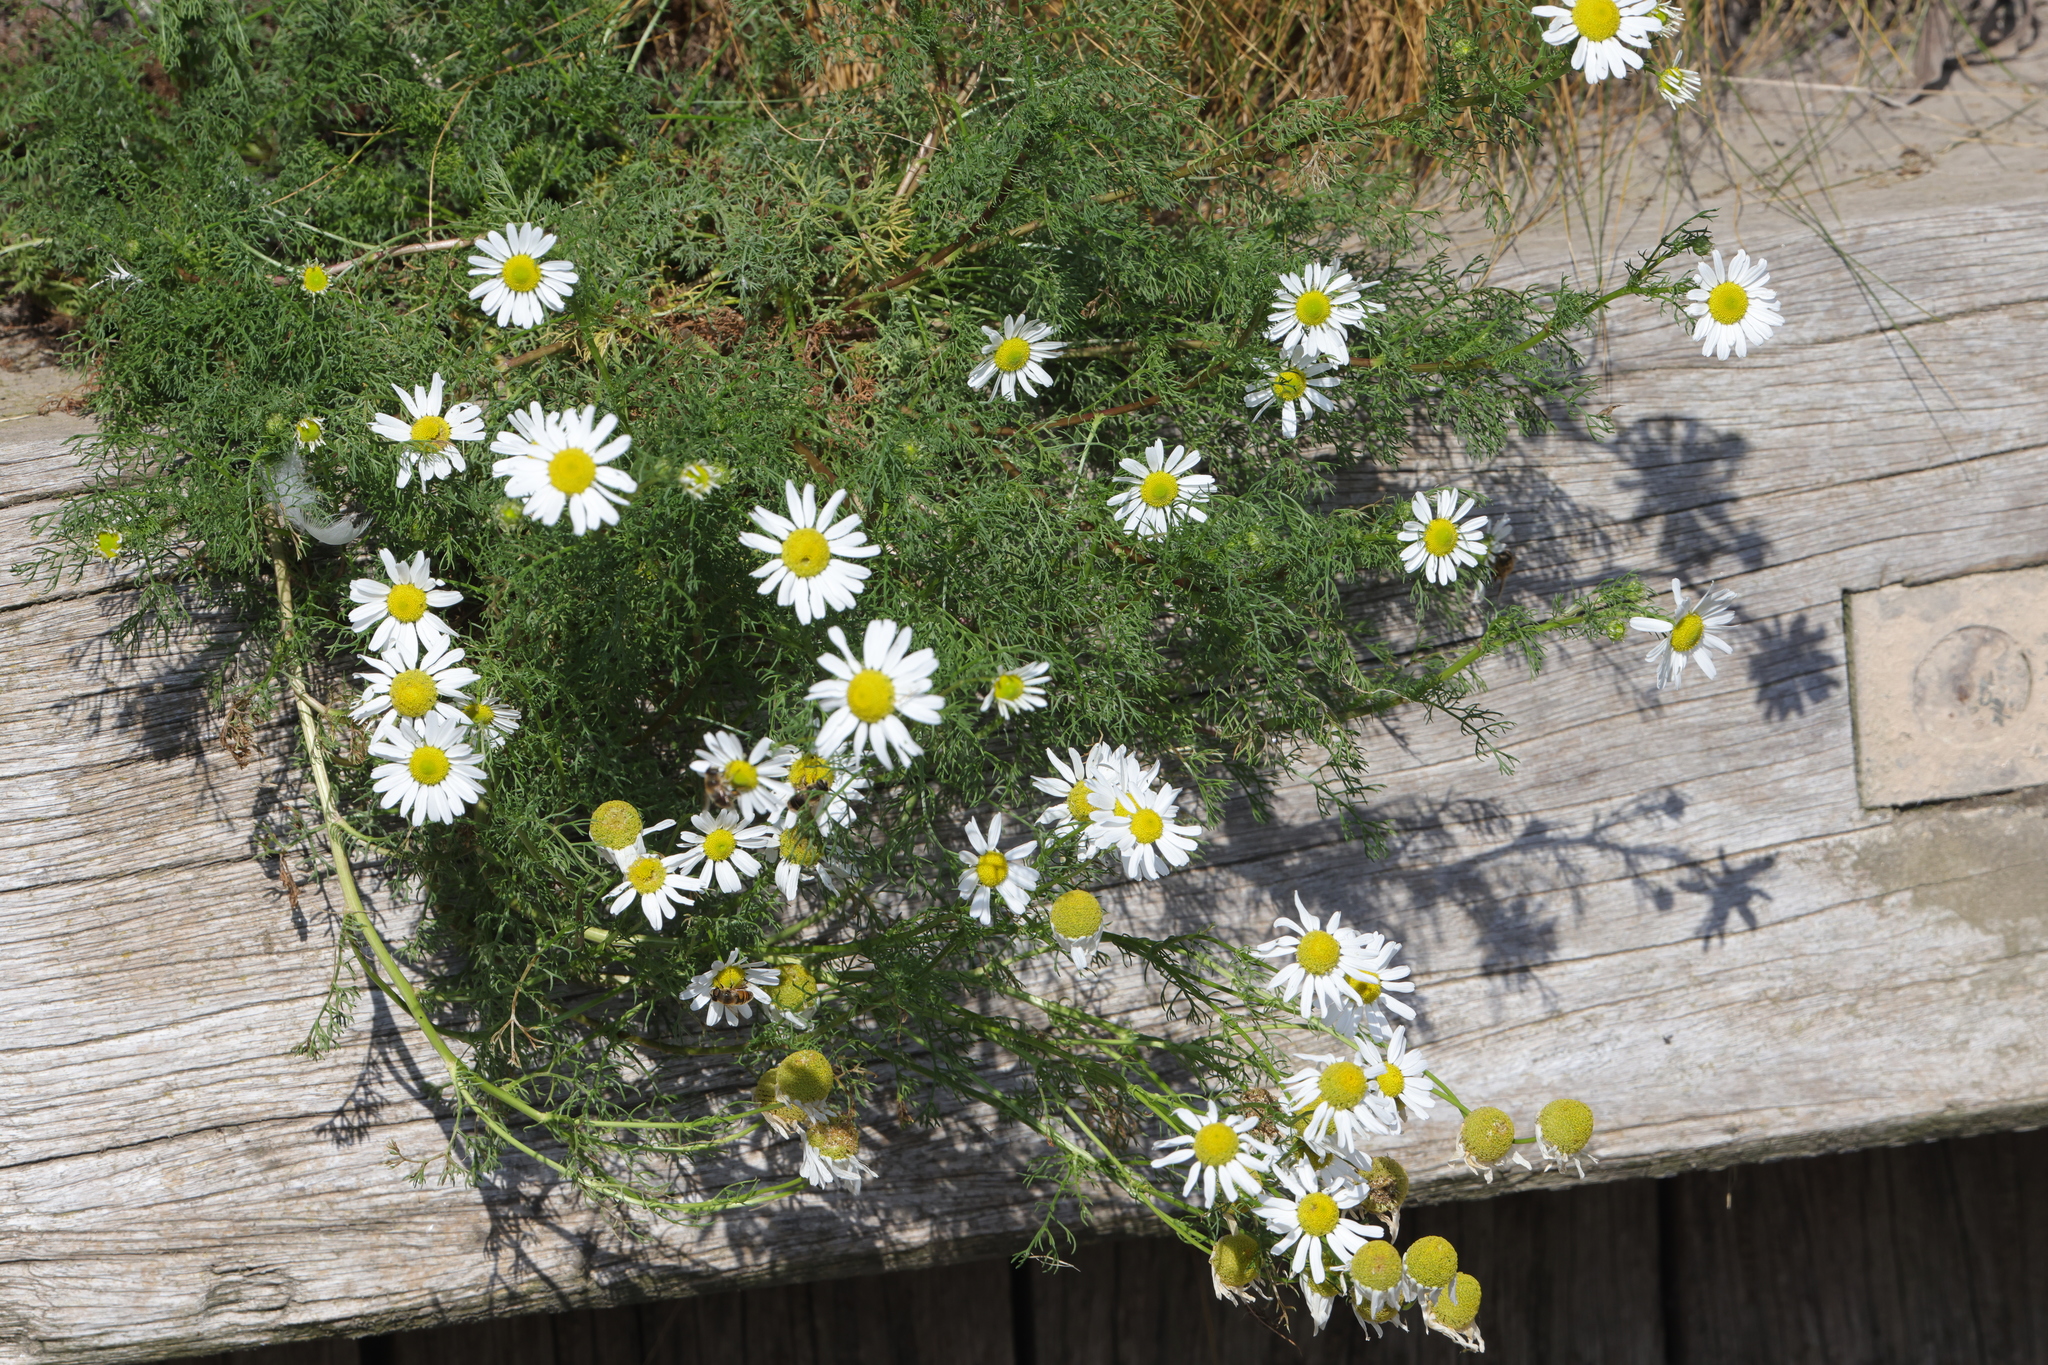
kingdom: Plantae
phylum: Tracheophyta
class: Magnoliopsida
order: Asterales
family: Asteraceae
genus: Tripleurospermum
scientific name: Tripleurospermum maritimum
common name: Sea mayweed
